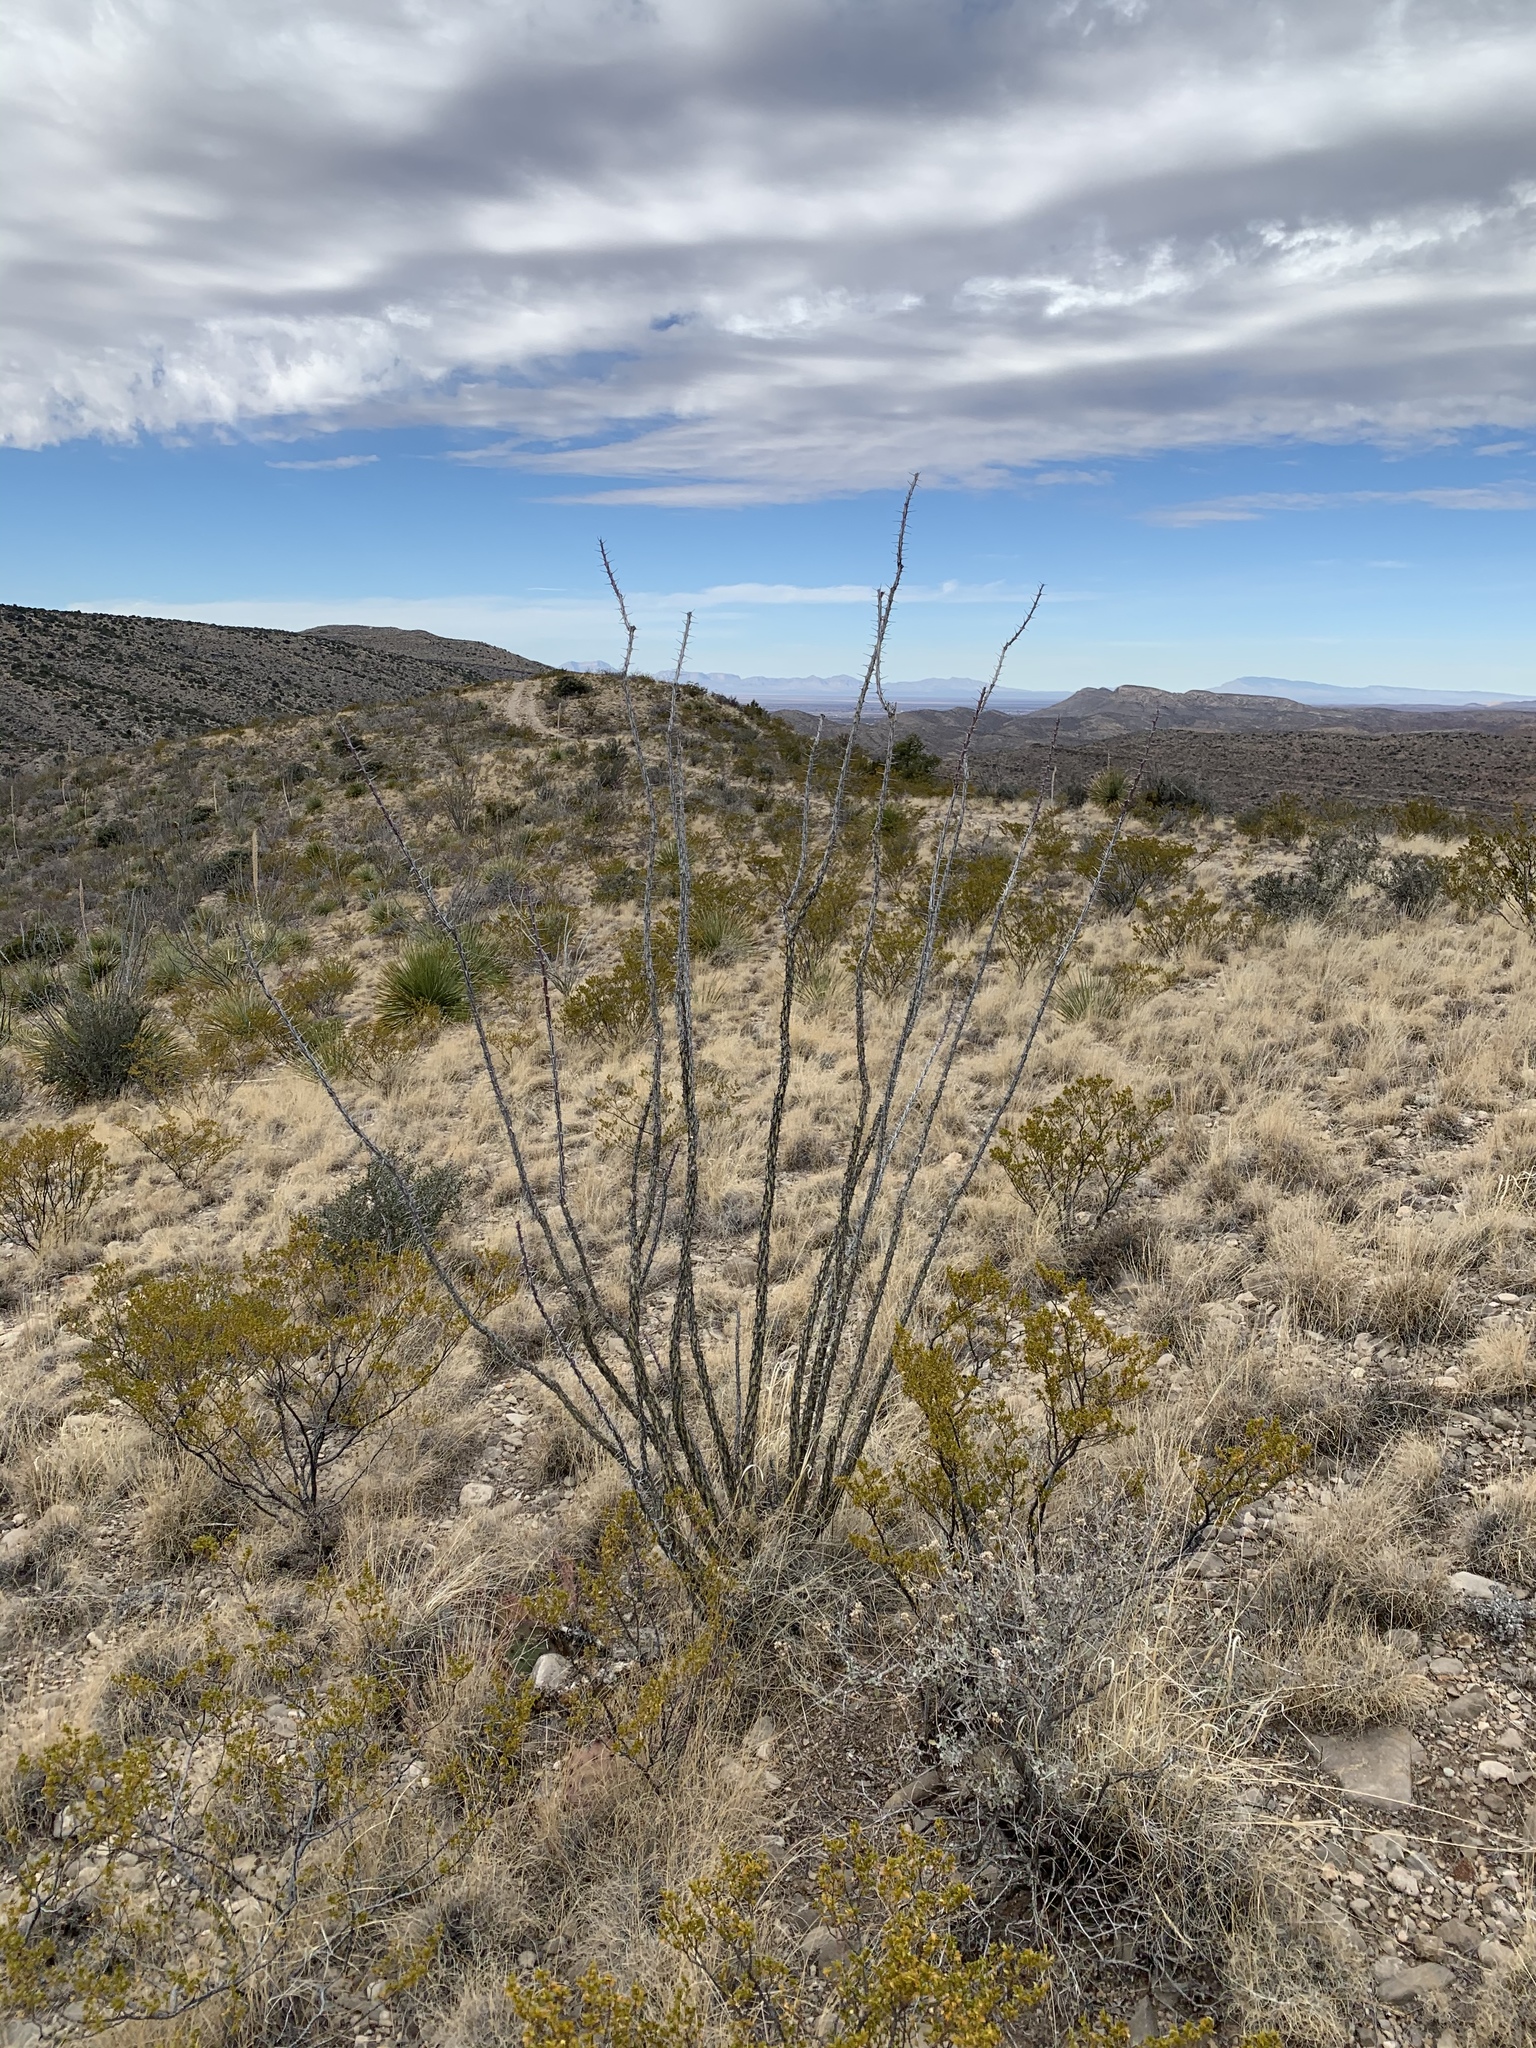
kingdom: Plantae
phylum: Tracheophyta
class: Magnoliopsida
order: Ericales
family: Fouquieriaceae
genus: Fouquieria
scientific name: Fouquieria splendens
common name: Vine-cactus
